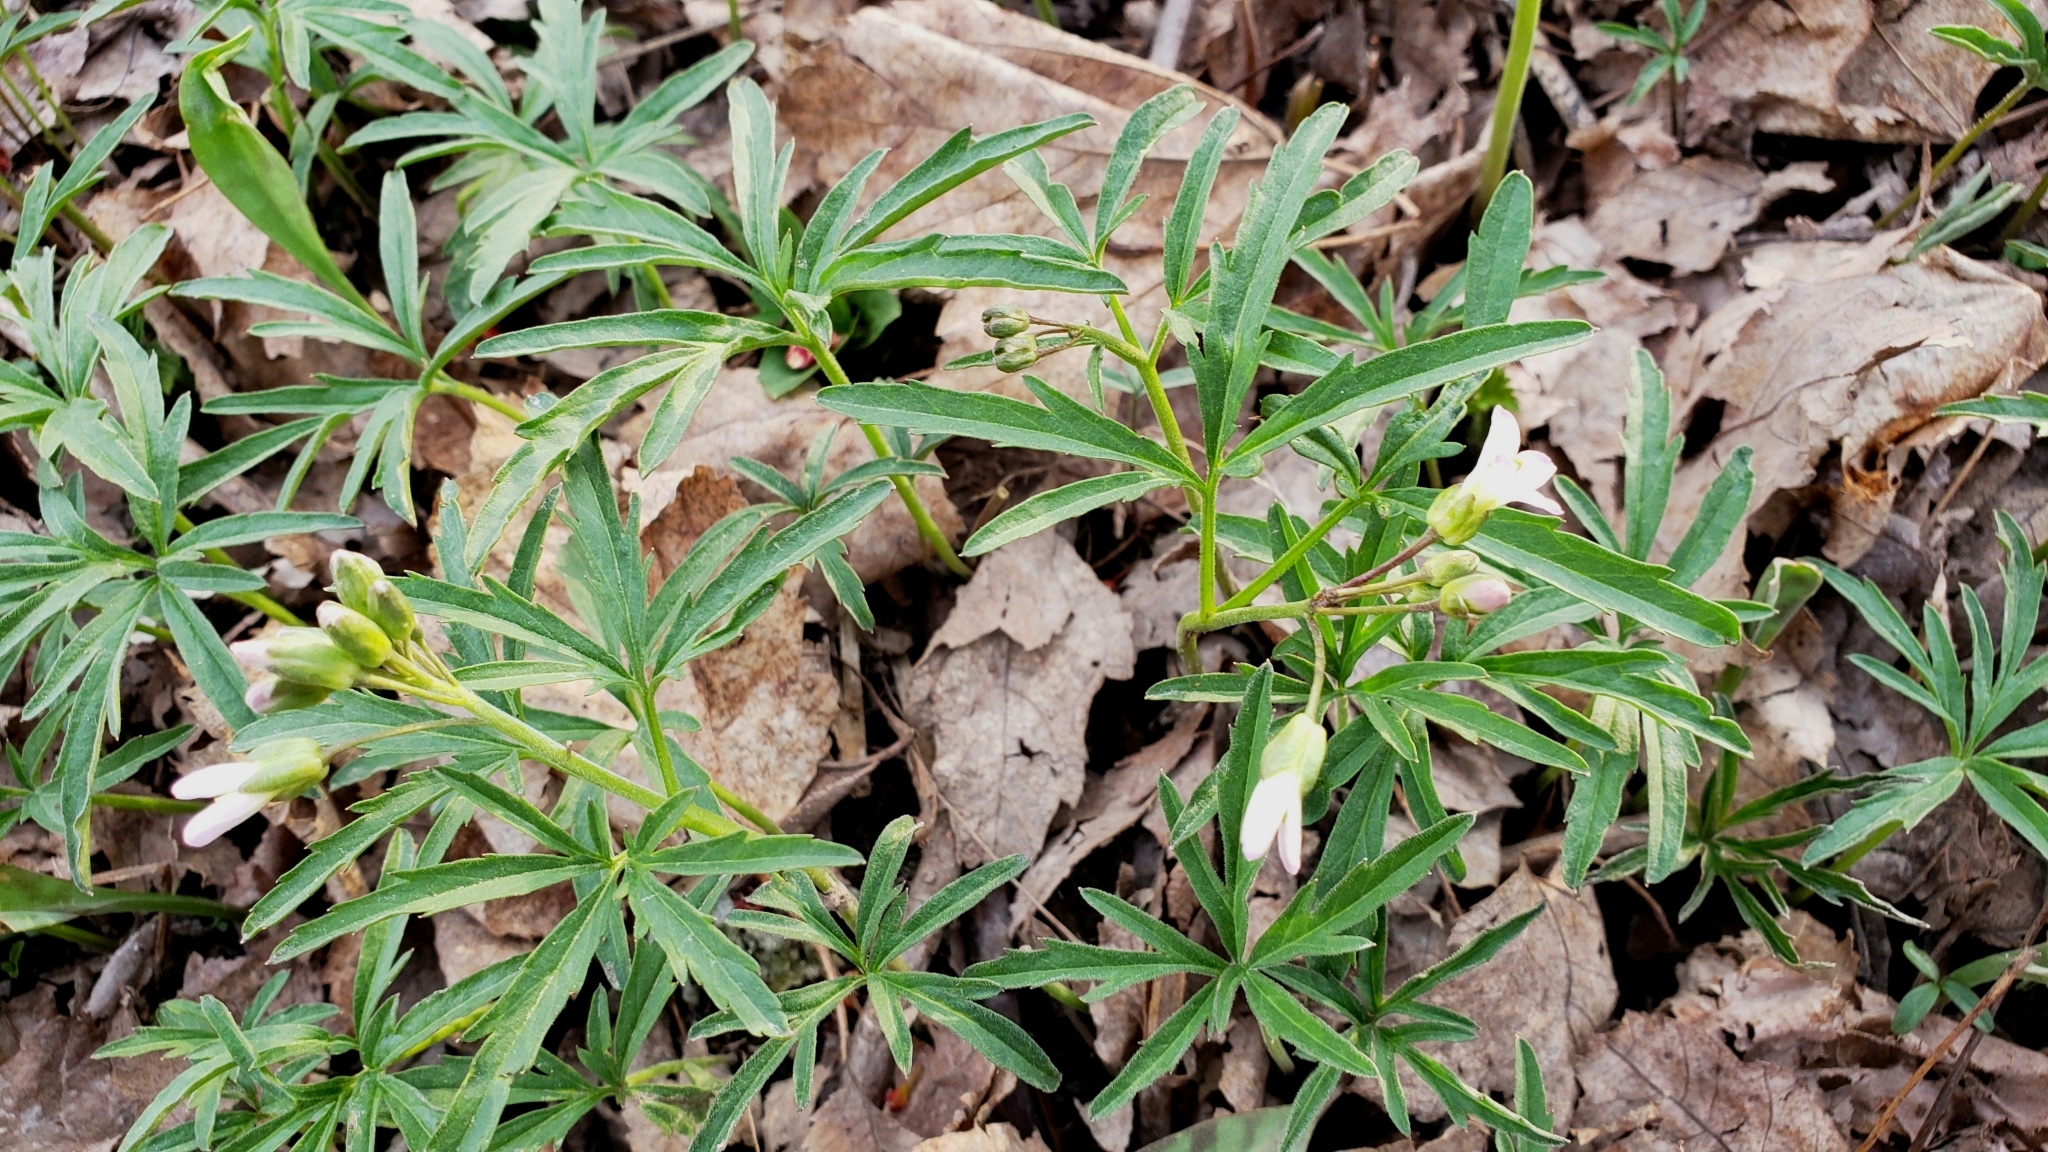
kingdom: Plantae
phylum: Tracheophyta
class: Magnoliopsida
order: Brassicales
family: Brassicaceae
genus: Cardamine
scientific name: Cardamine concatenata
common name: Cut-leaf toothcup
